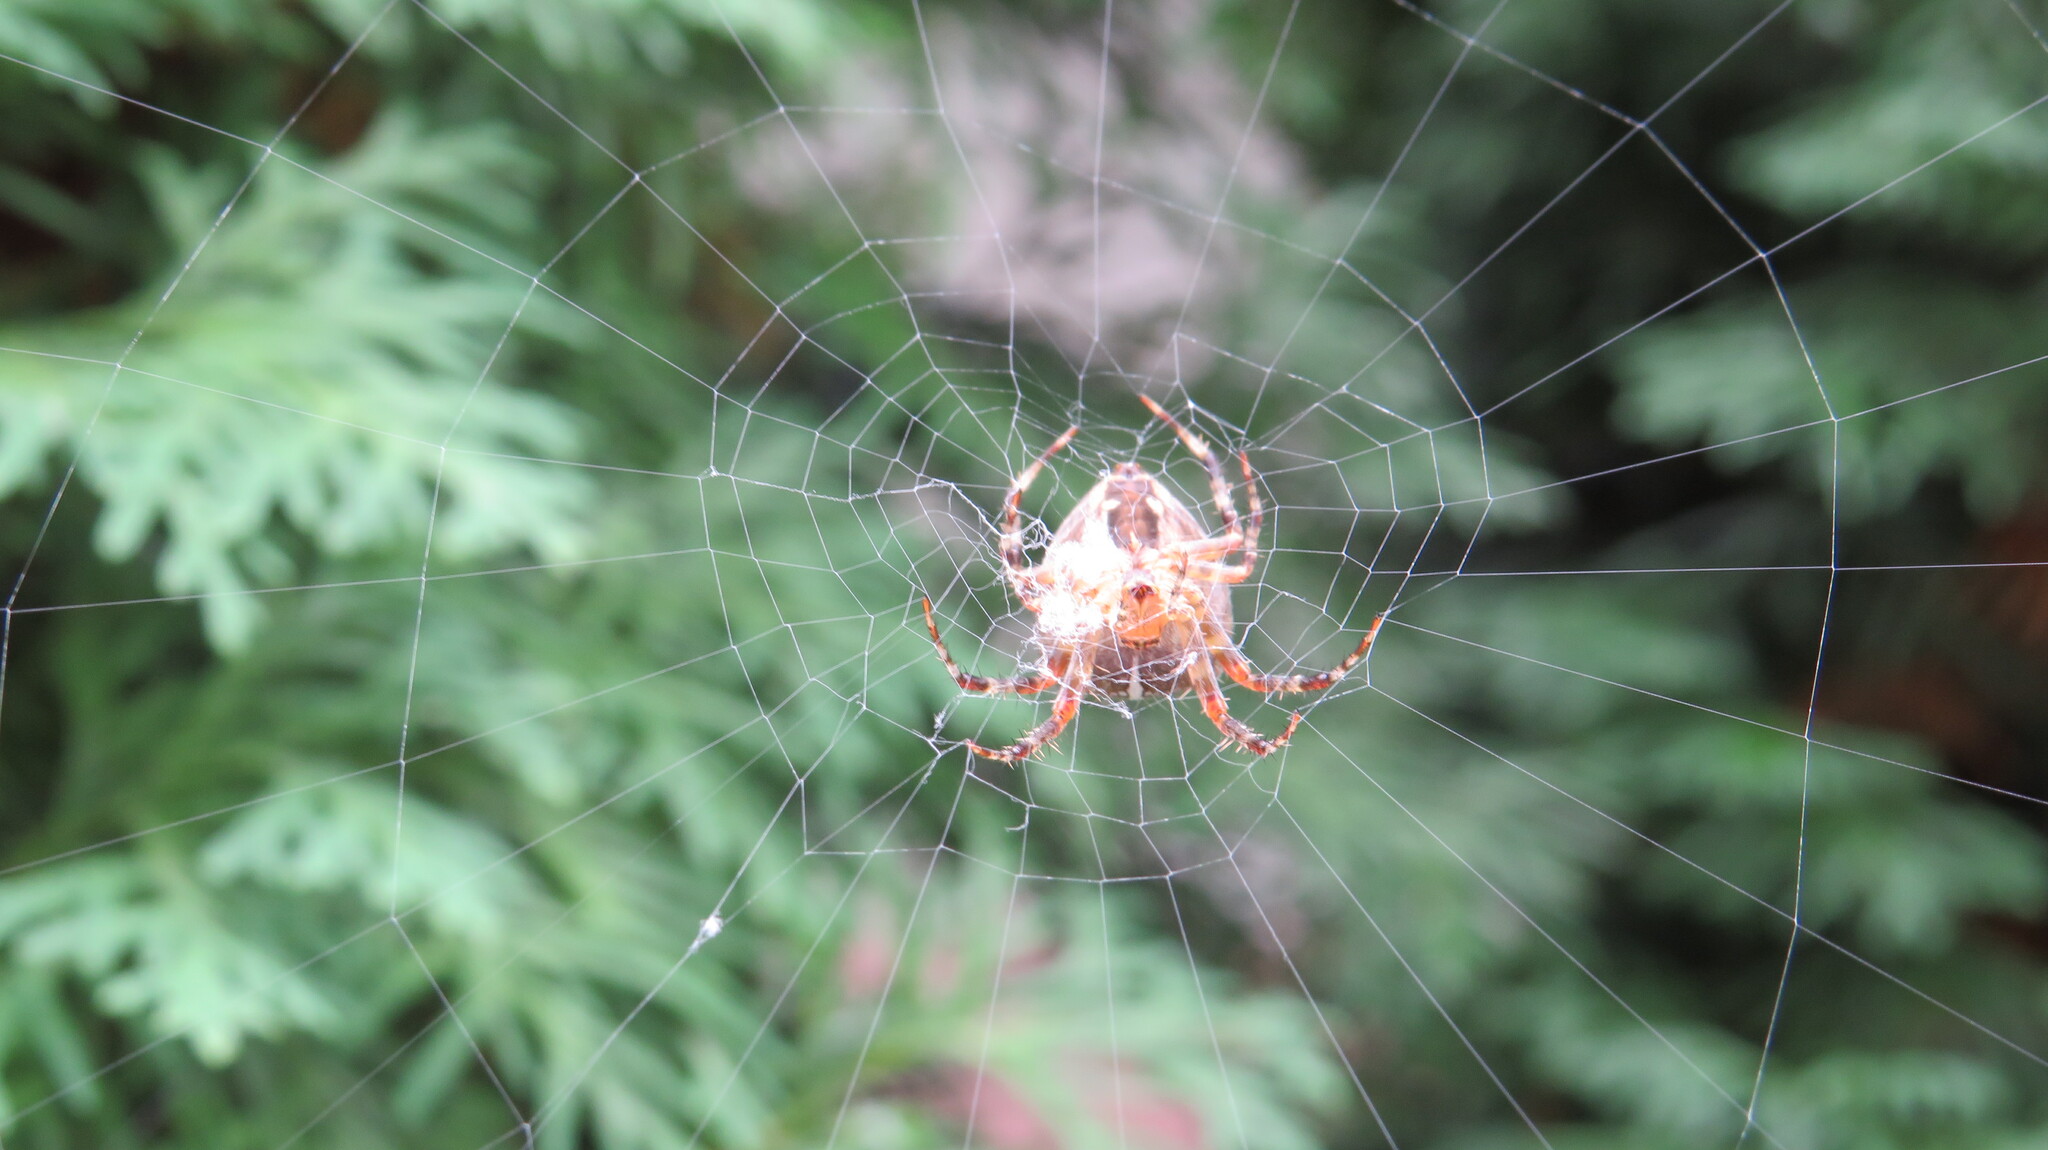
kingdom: Animalia
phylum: Arthropoda
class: Arachnida
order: Araneae
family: Araneidae
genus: Araneus
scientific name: Araneus diadematus
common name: Cross orbweaver
